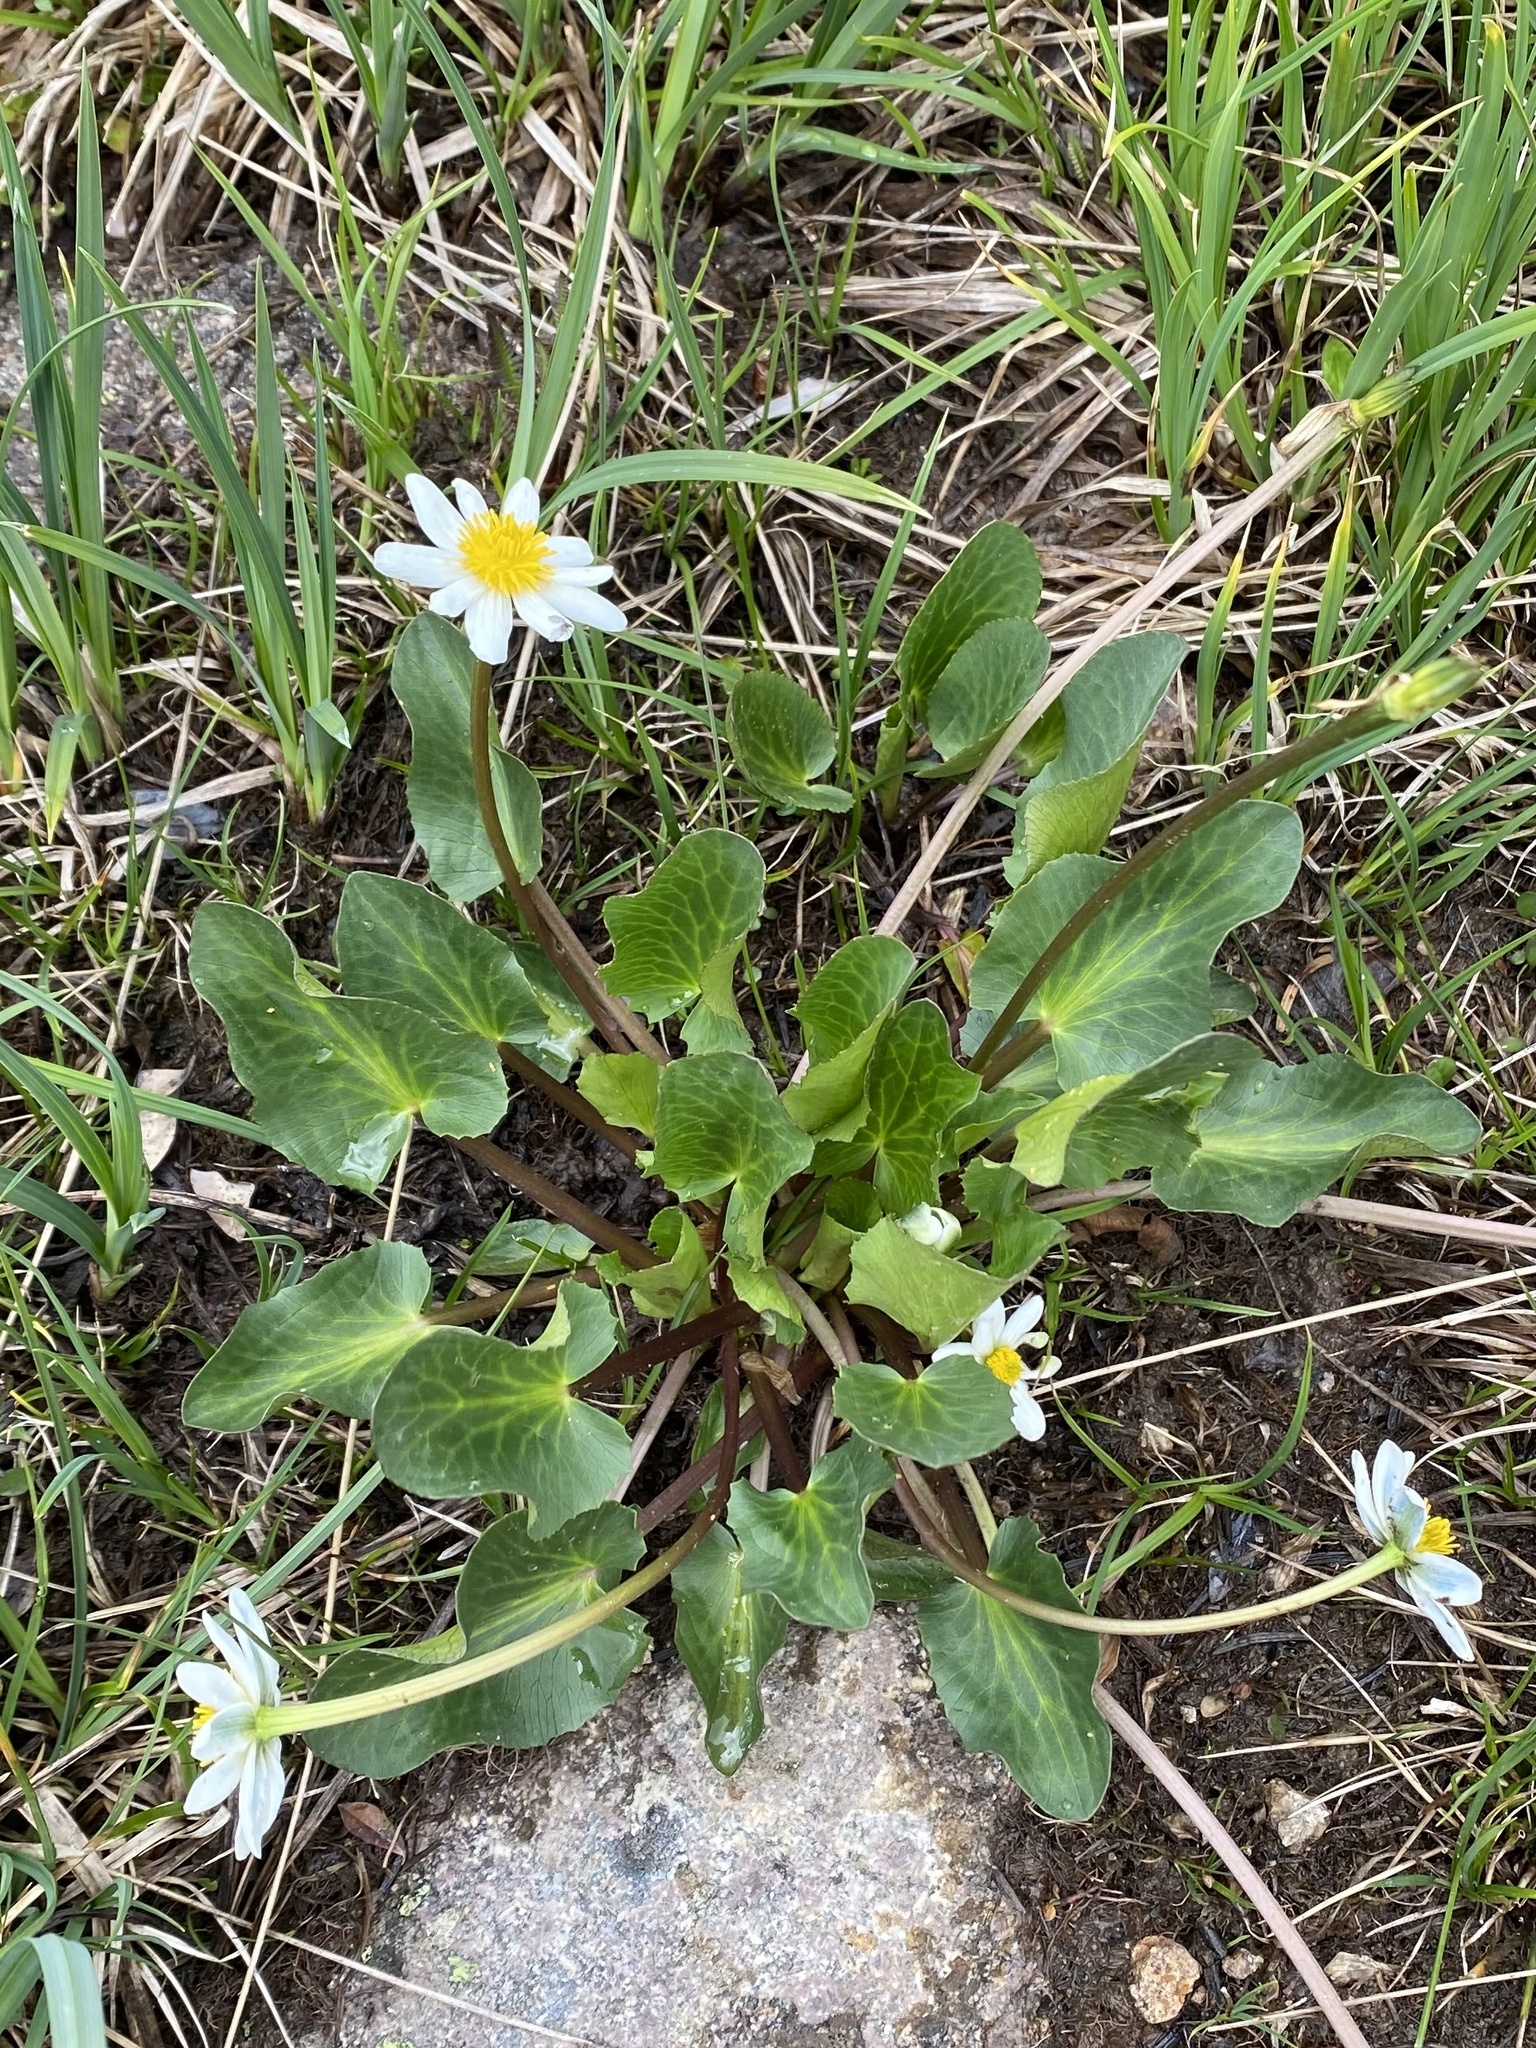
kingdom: Plantae
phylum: Tracheophyta
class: Magnoliopsida
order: Ranunculales
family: Ranunculaceae
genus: Caltha
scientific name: Caltha leptosepala
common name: Elkslip
